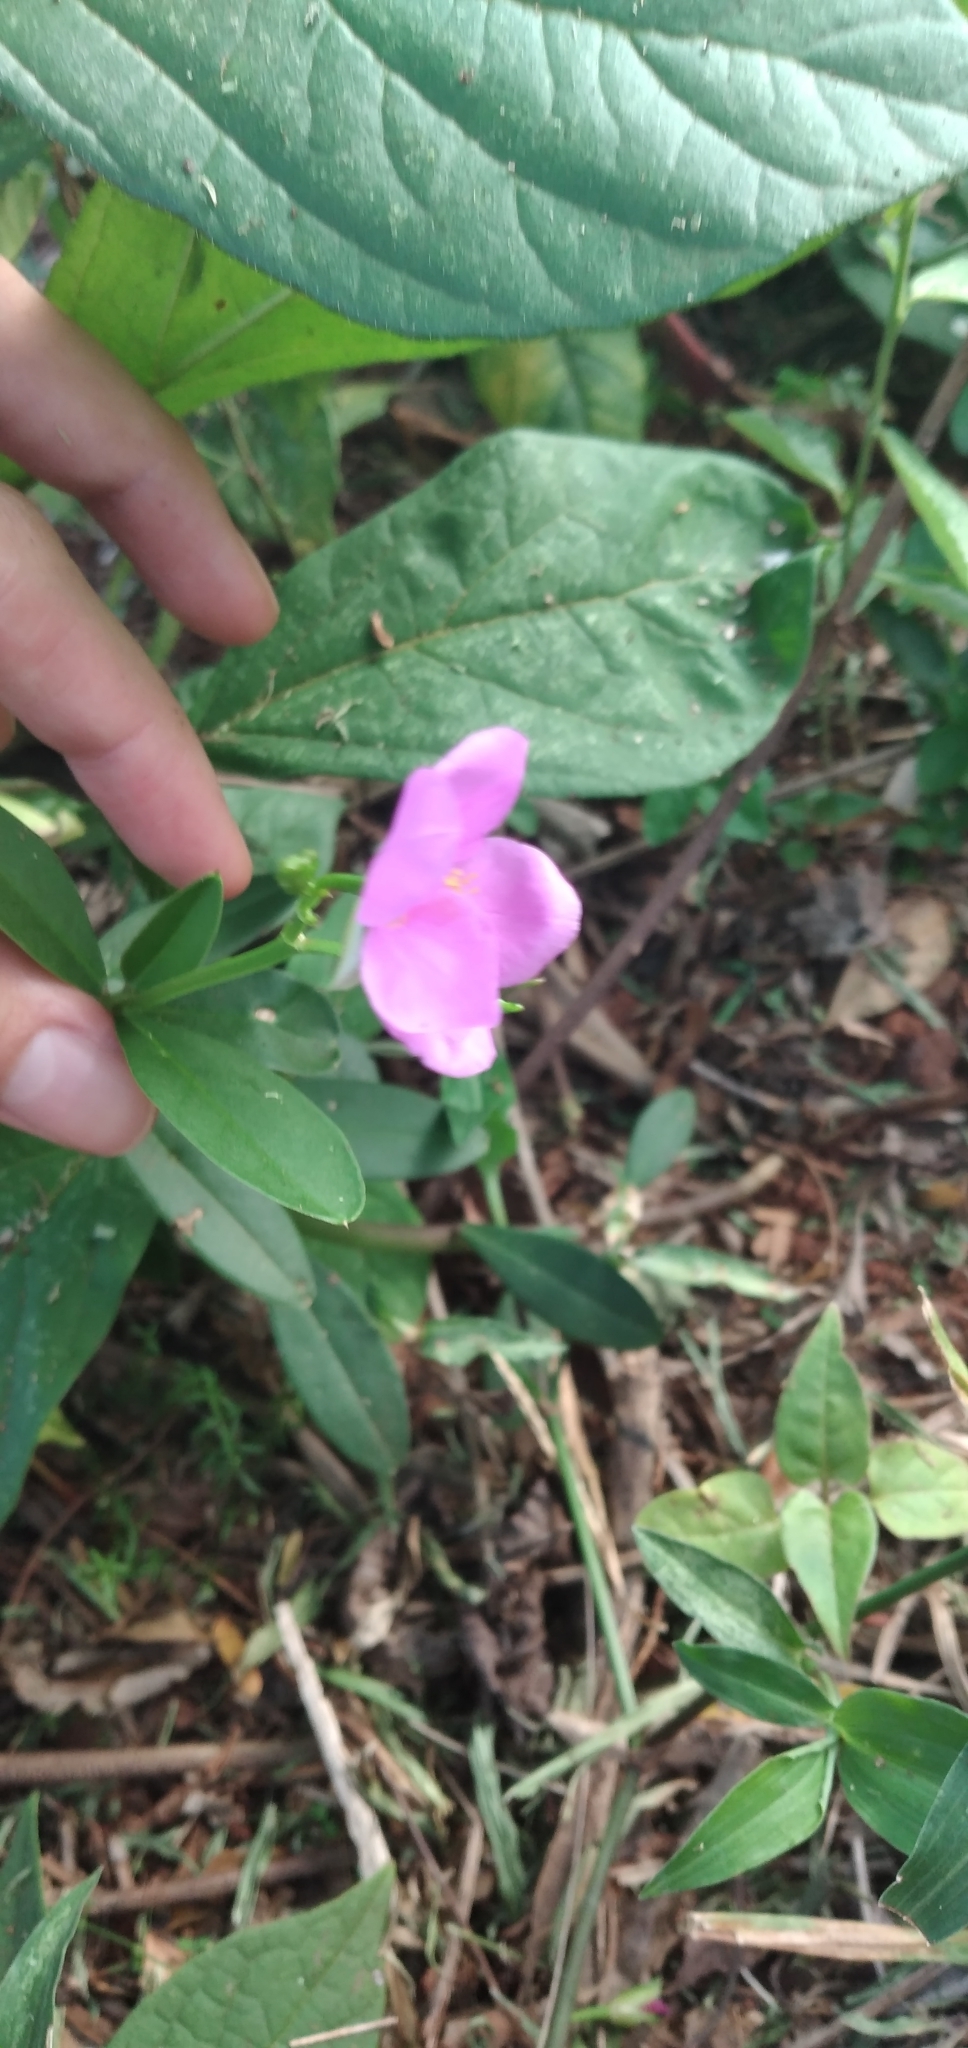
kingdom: Plantae
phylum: Tracheophyta
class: Magnoliopsida
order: Caryophyllales
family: Talinaceae
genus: Talinum
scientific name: Talinum fruticosum
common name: Verdolaga-francesa
